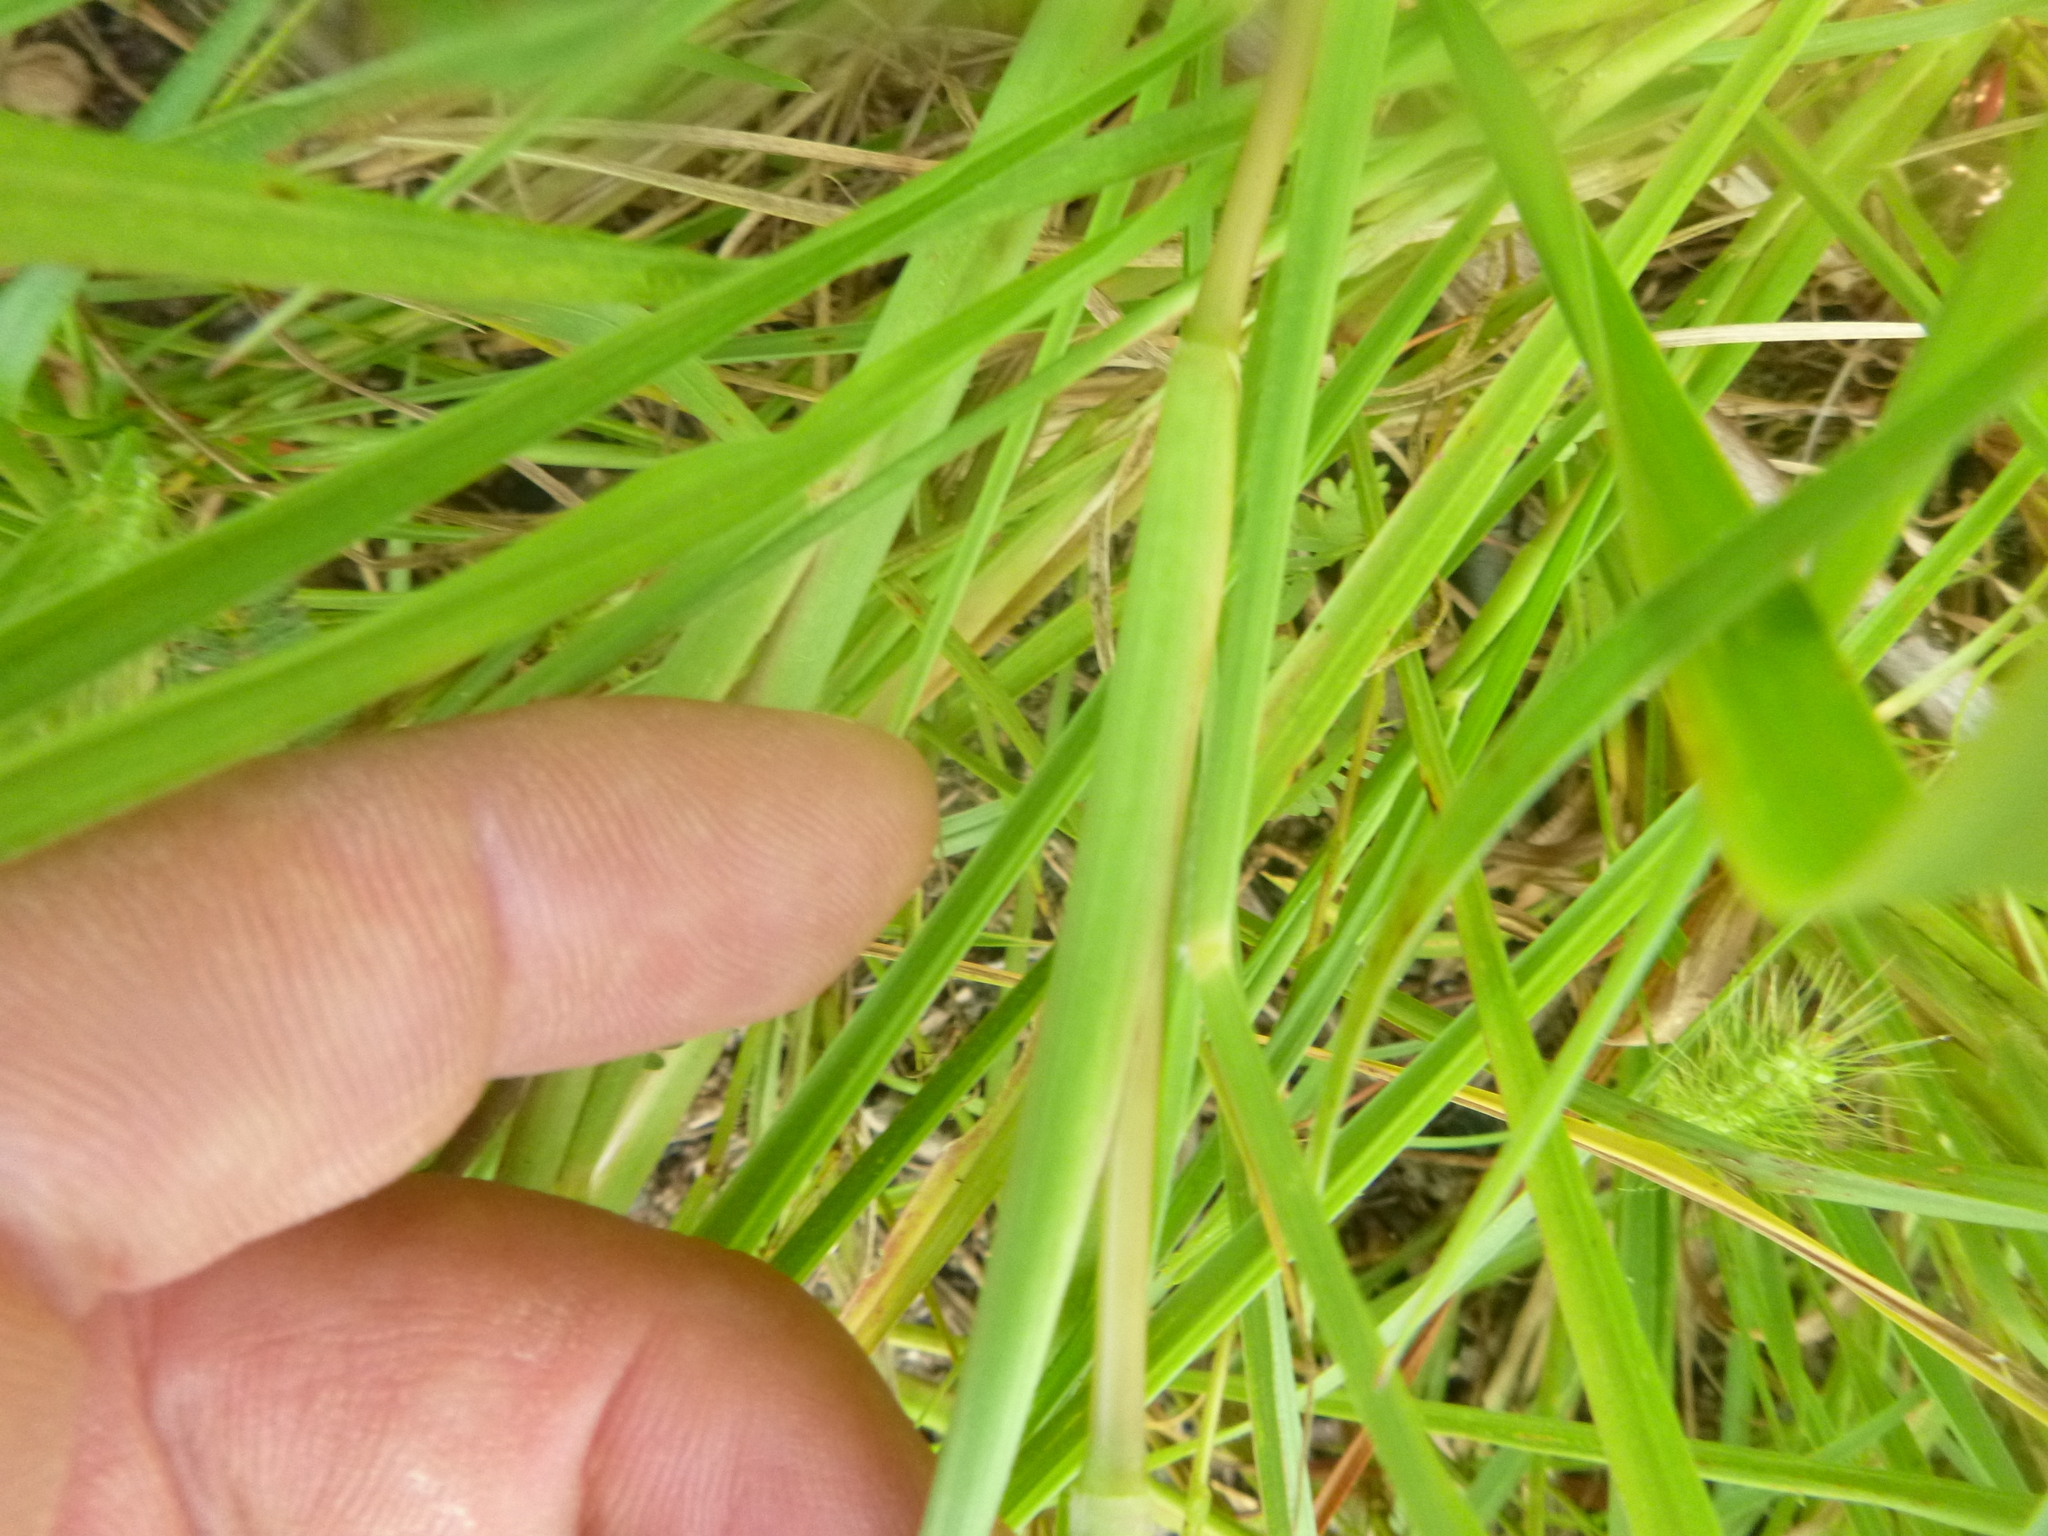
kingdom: Plantae
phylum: Tracheophyta
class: Liliopsida
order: Poales
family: Poaceae
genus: Setaria
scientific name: Setaria corrugata
